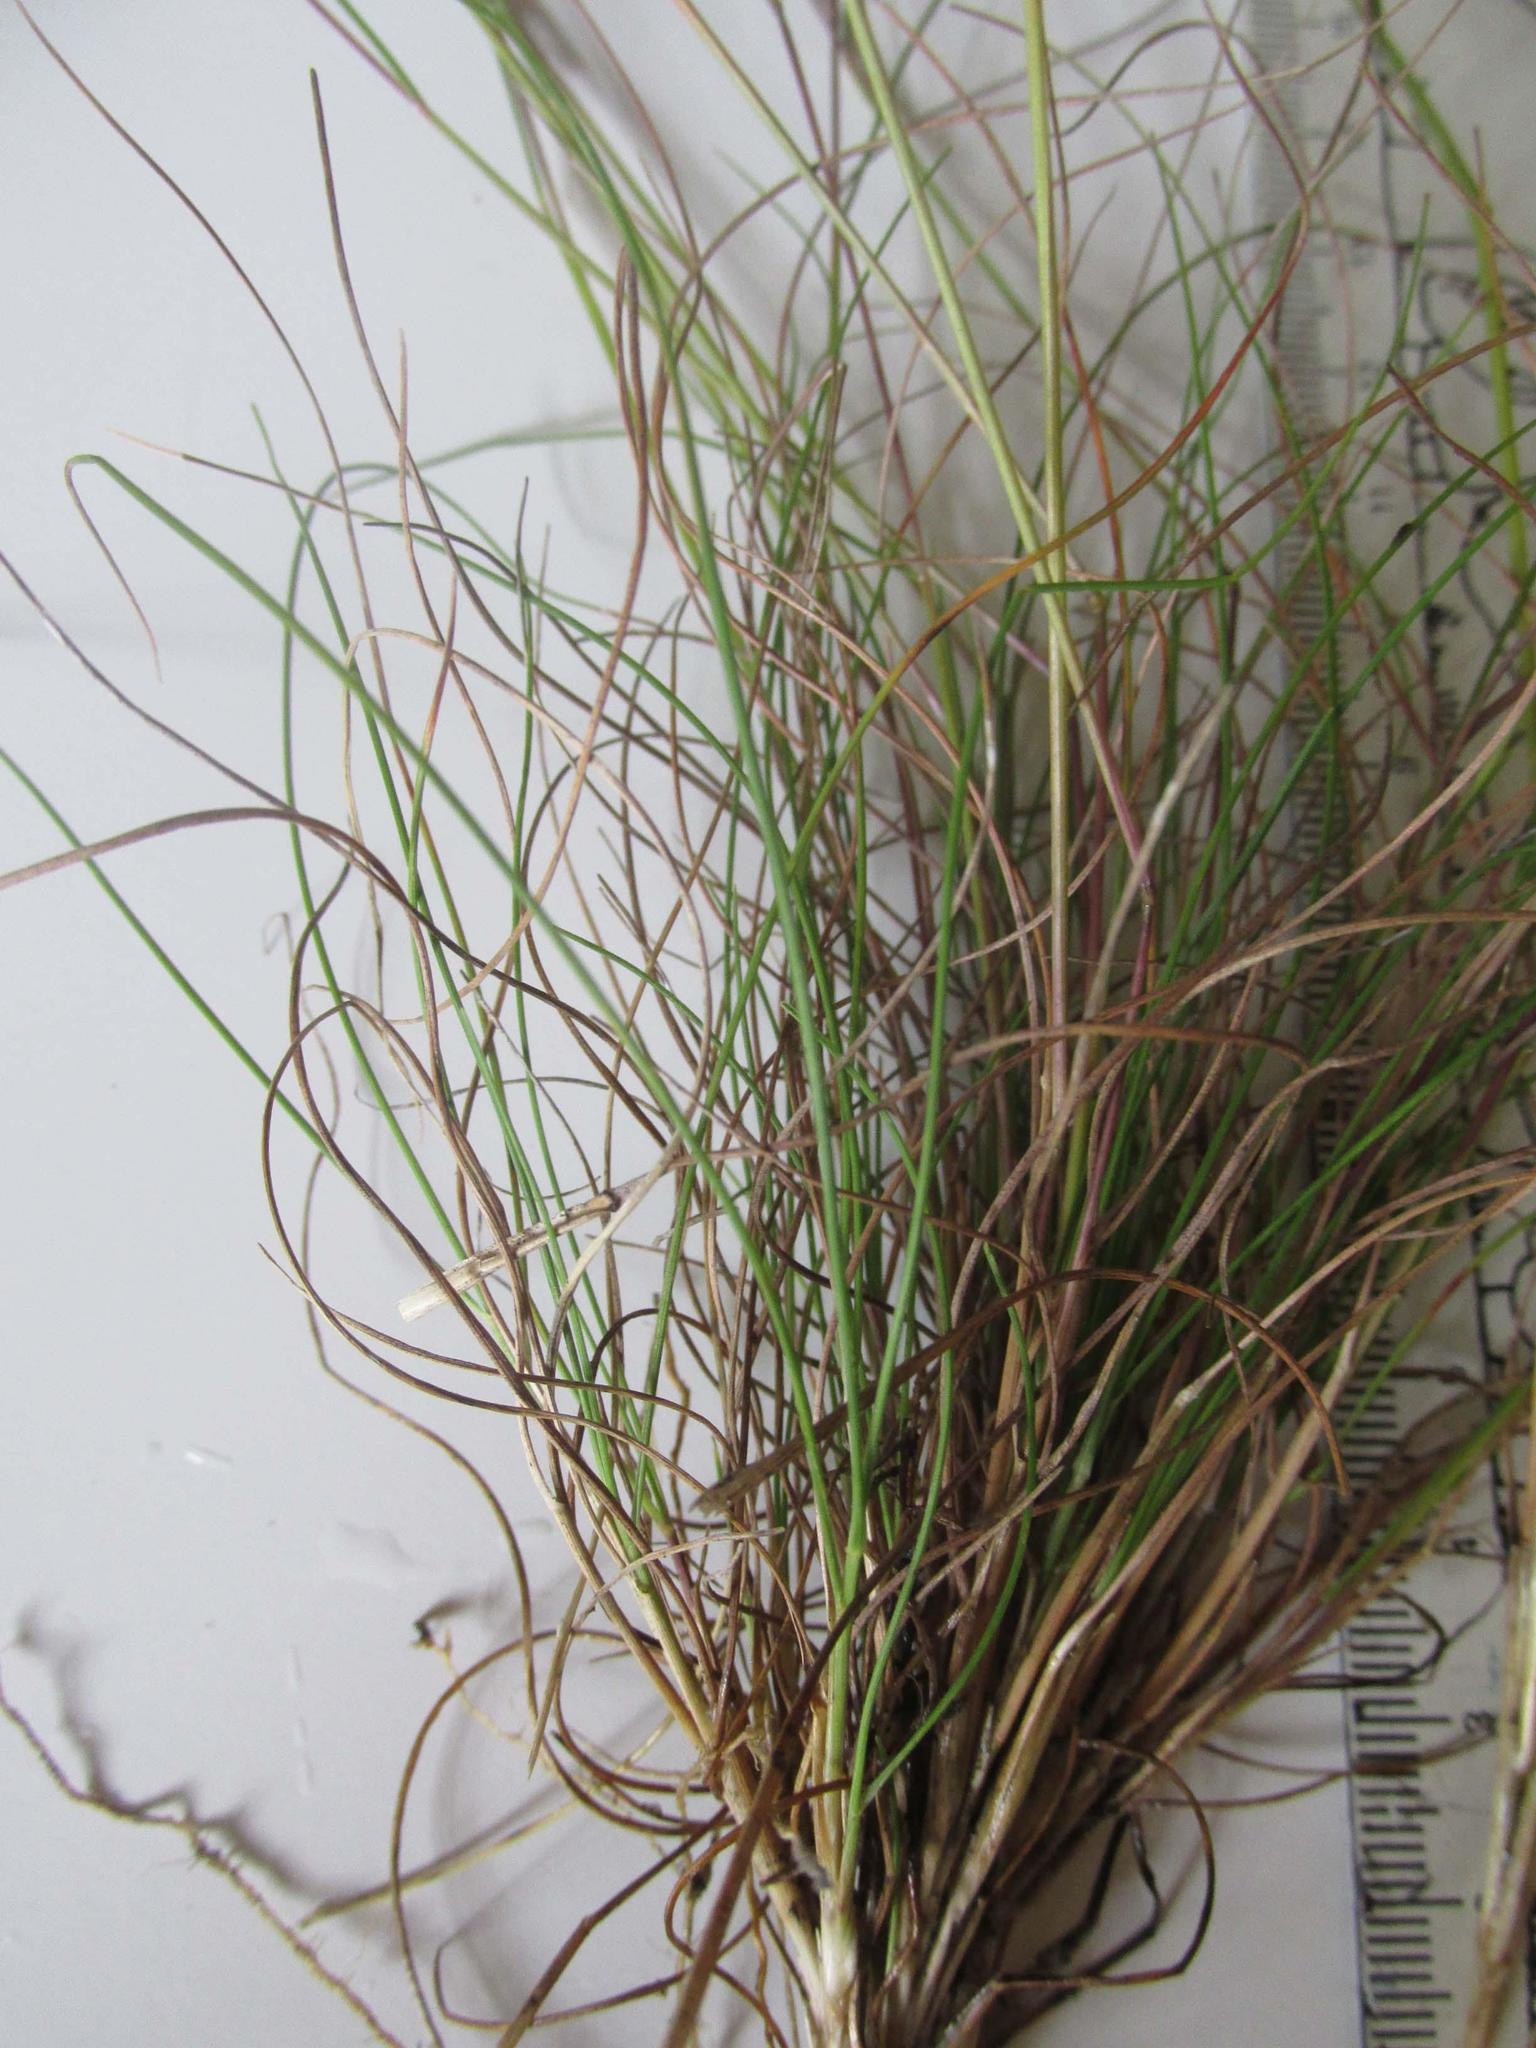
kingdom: Plantae
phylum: Tracheophyta
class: Liliopsida
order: Poales
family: Poaceae
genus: Pentameris
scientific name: Pentameris malouinensis
